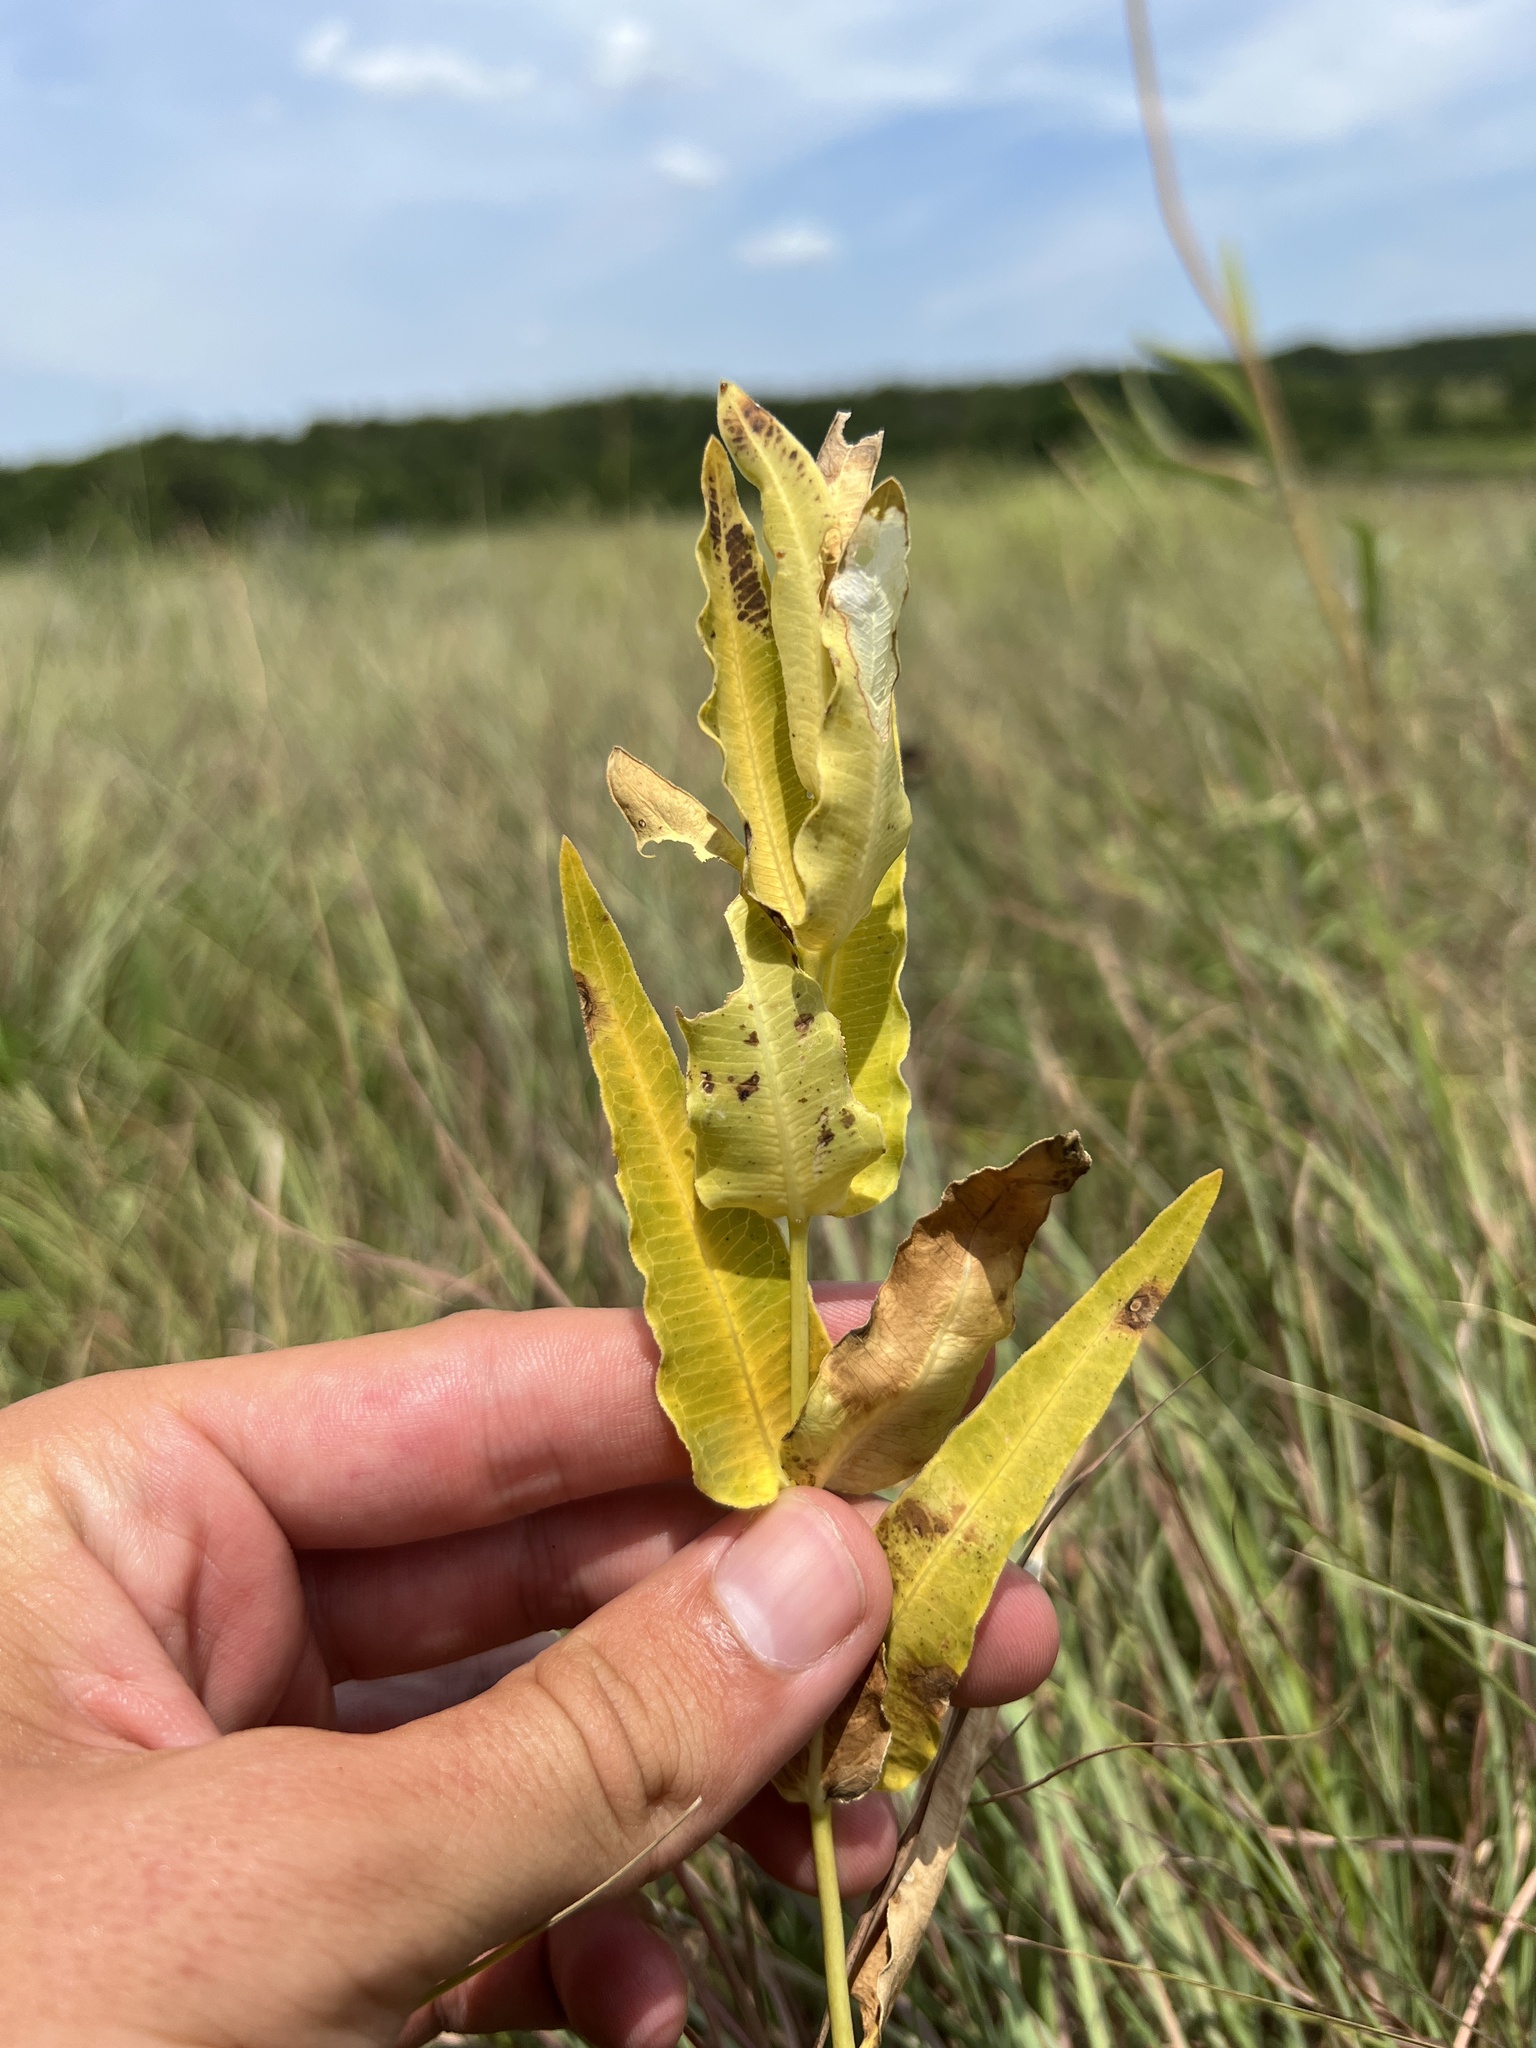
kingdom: Plantae
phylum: Tracheophyta
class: Magnoliopsida
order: Gentianales
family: Apocynaceae
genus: Asclepias
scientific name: Asclepias meadii
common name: Mead's milkweed
